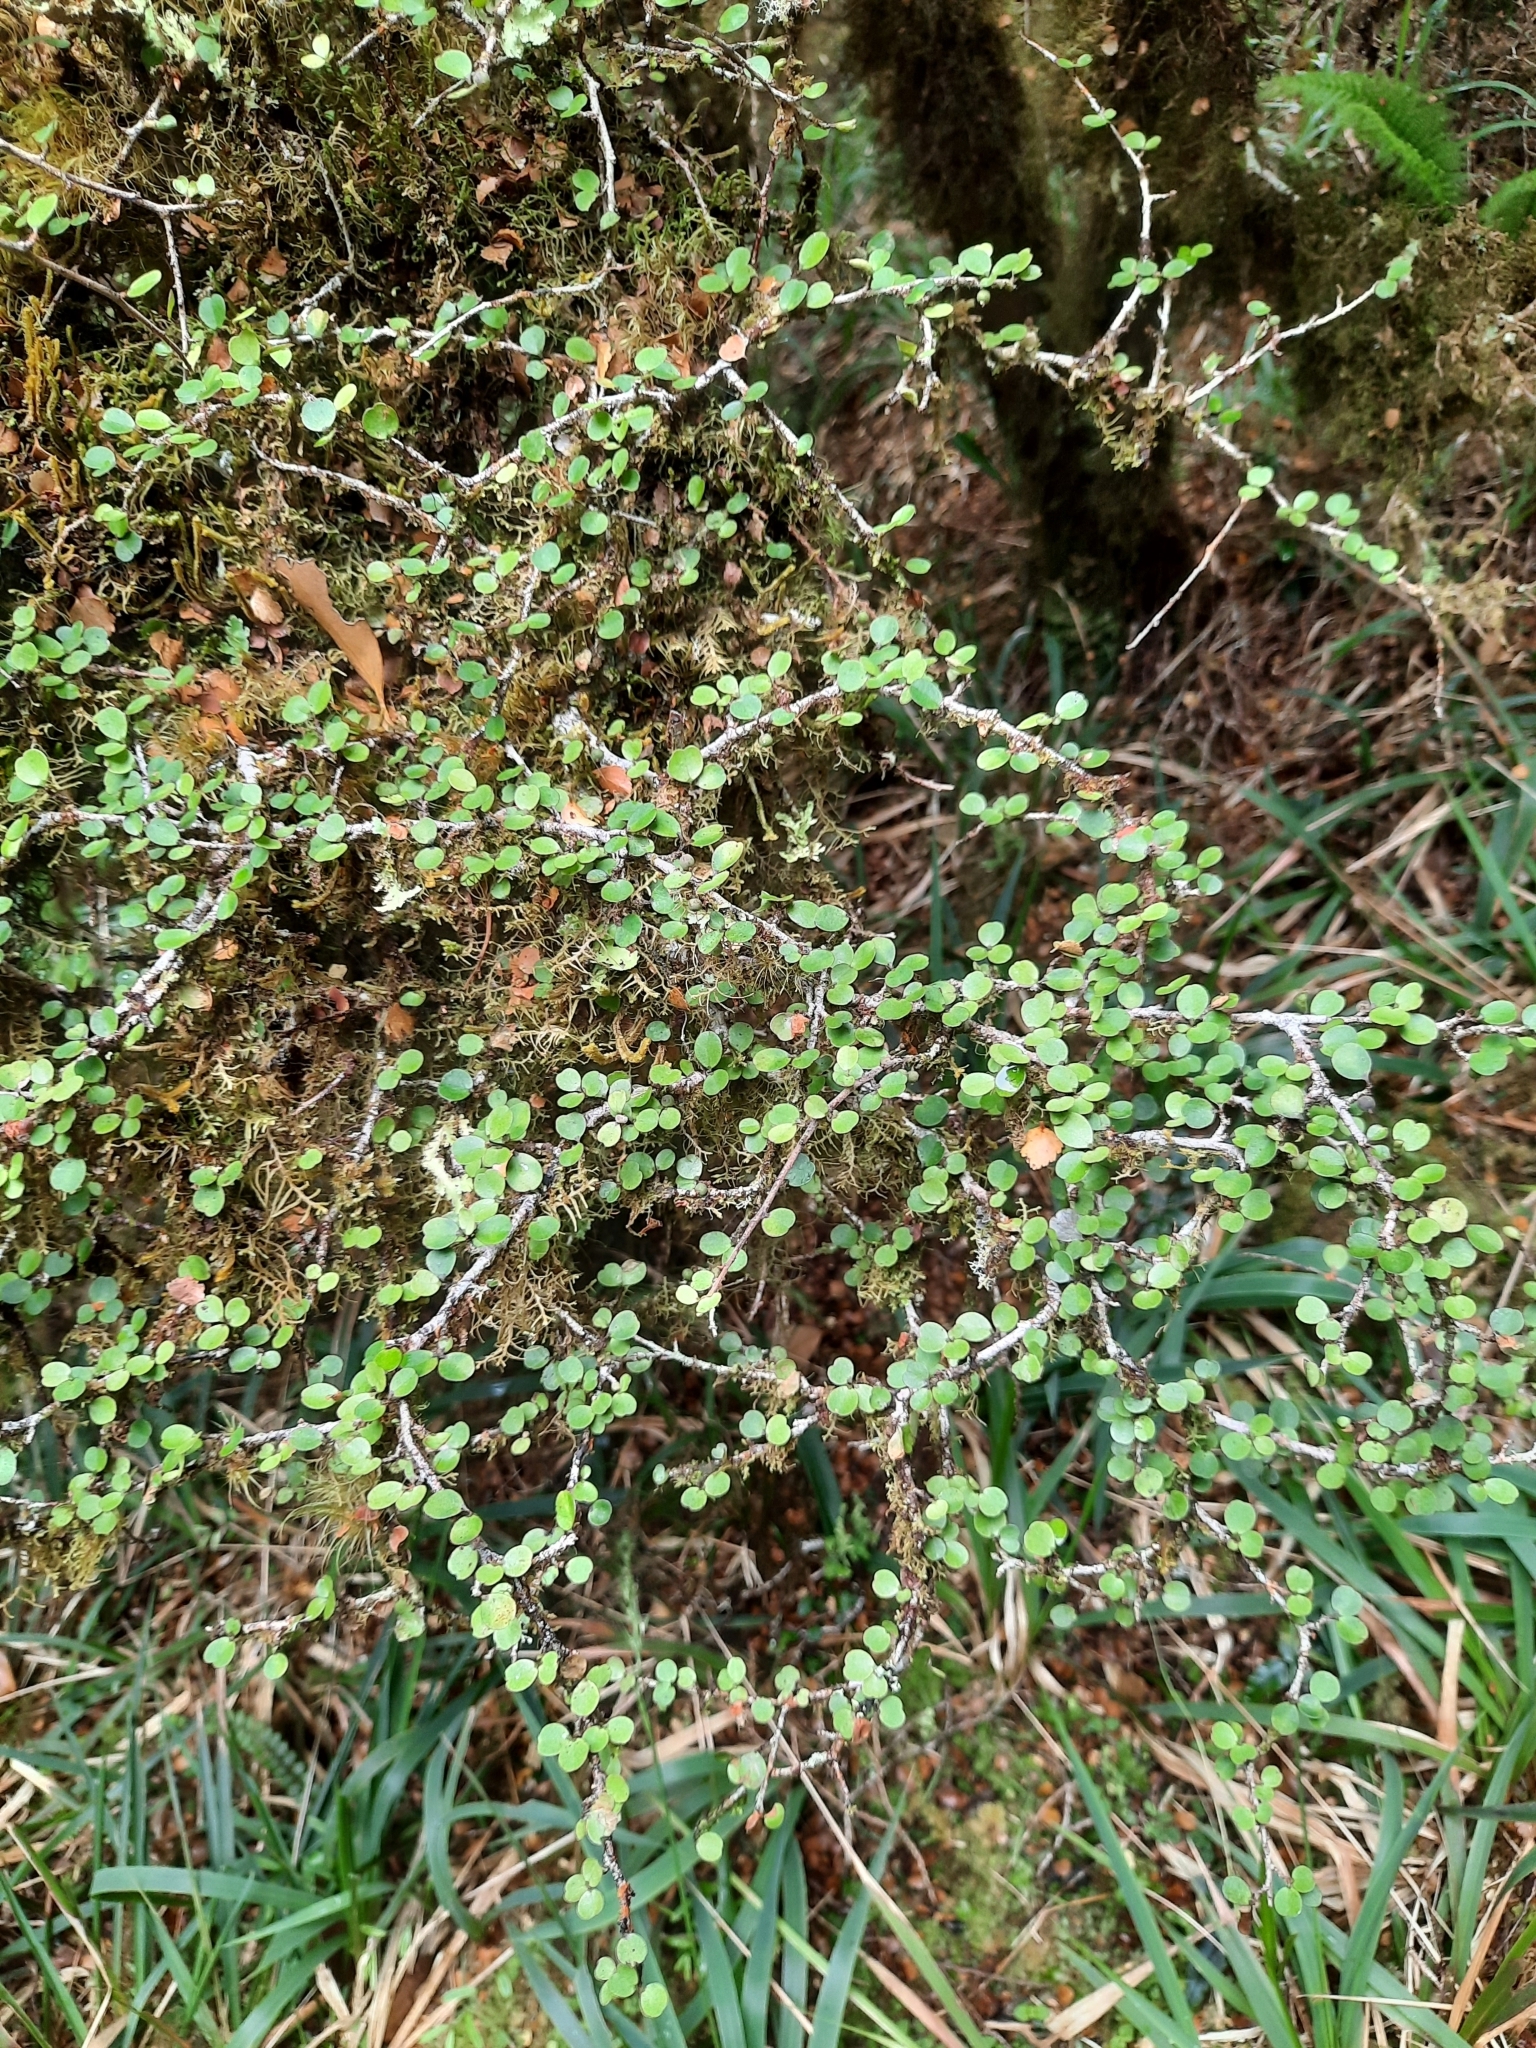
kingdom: Plantae
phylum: Tracheophyta
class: Magnoliopsida
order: Ericales
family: Primulaceae
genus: Myrsine
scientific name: Myrsine divaricata
